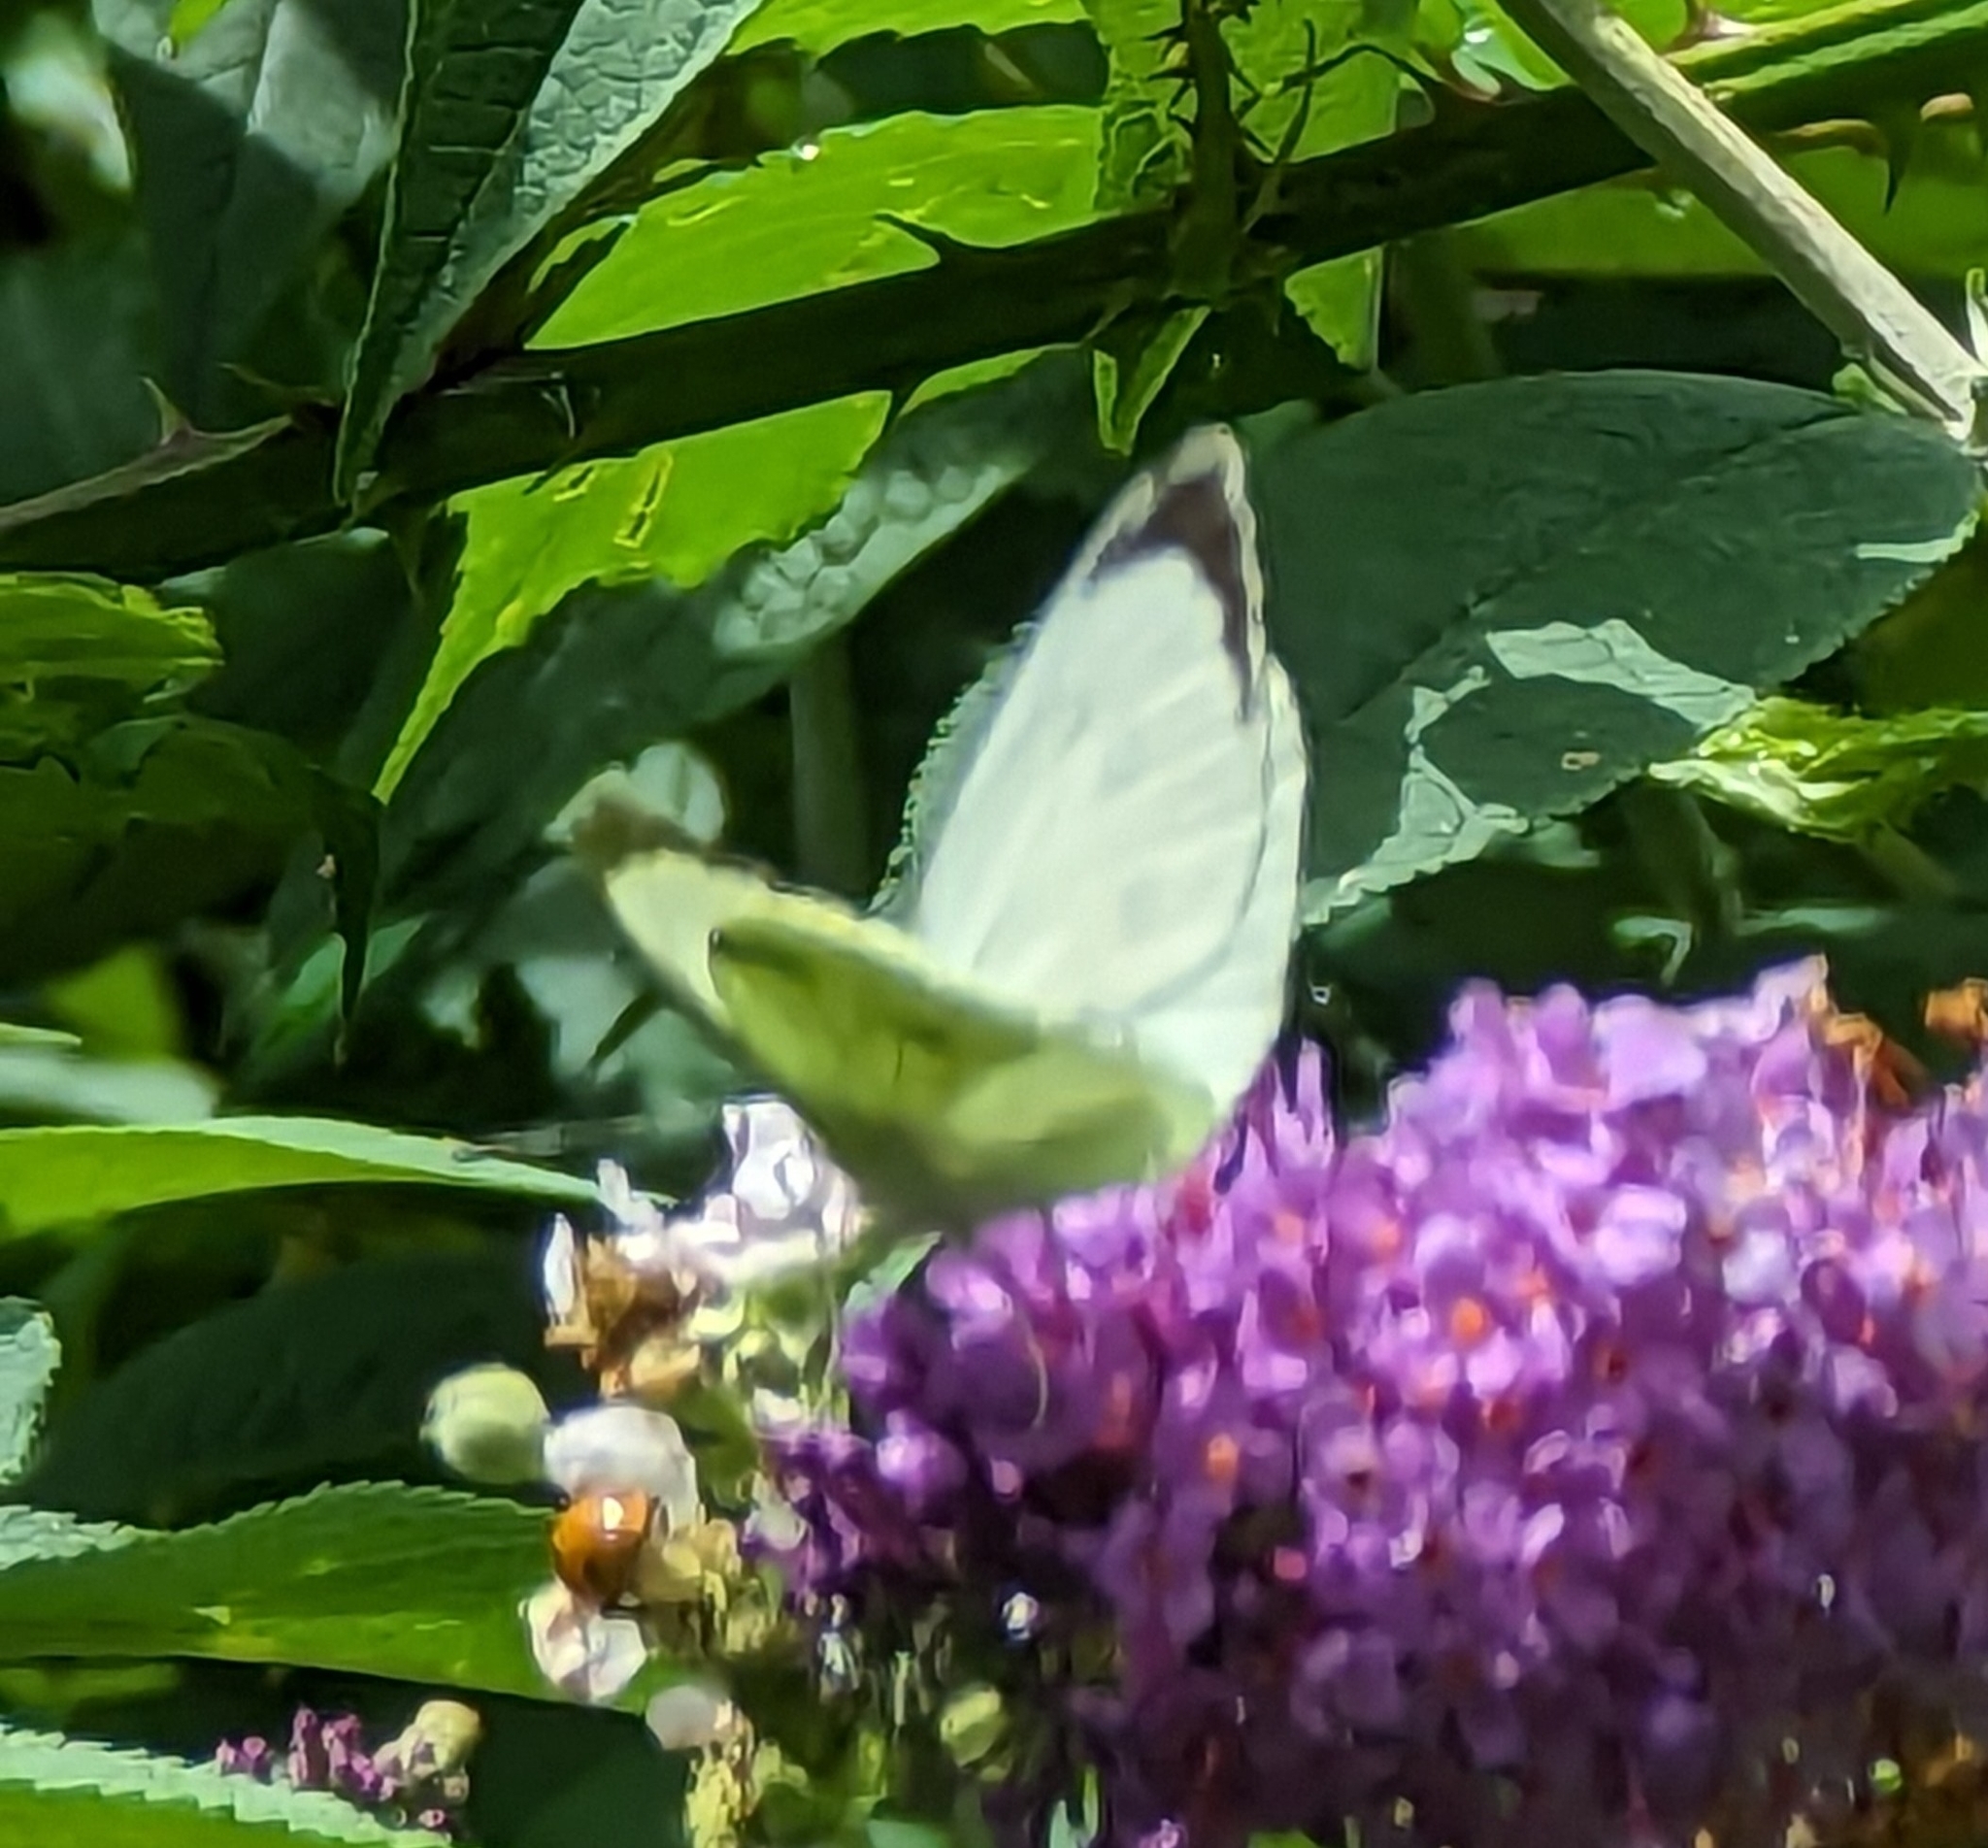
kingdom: Animalia
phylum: Arthropoda
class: Insecta
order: Lepidoptera
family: Pieridae
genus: Pieris
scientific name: Pieris brassicae
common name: Large white
